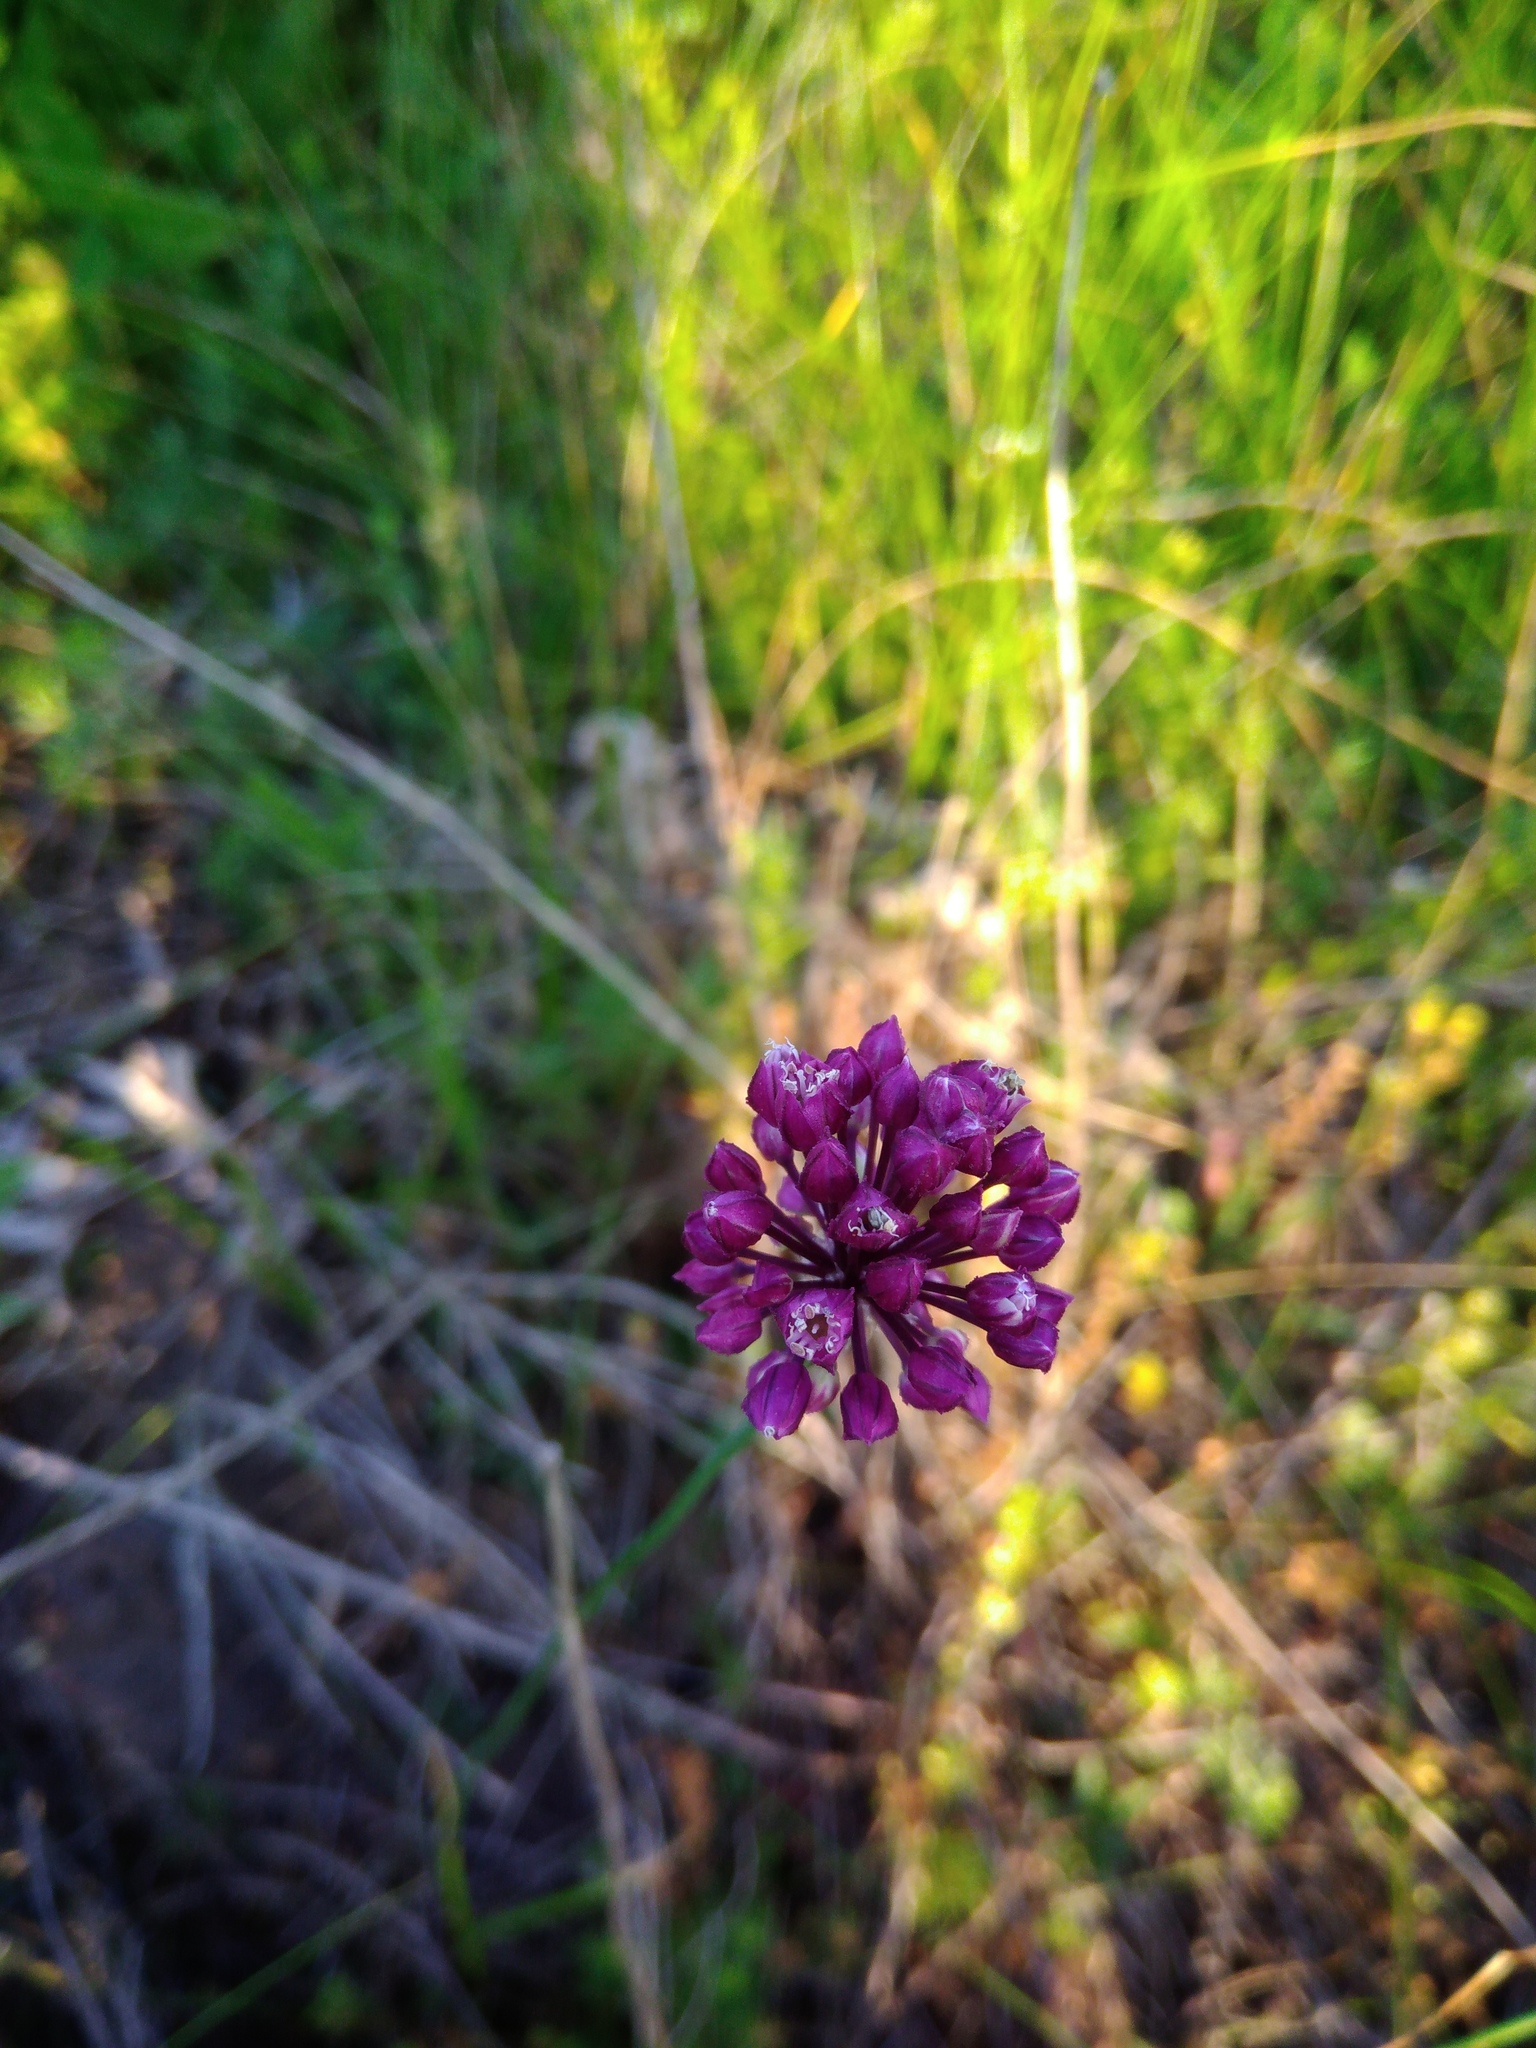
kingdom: Plantae
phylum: Tracheophyta
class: Liliopsida
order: Asparagales
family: Amaryllidaceae
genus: Allium
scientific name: Allium rotundum
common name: Sand leek
